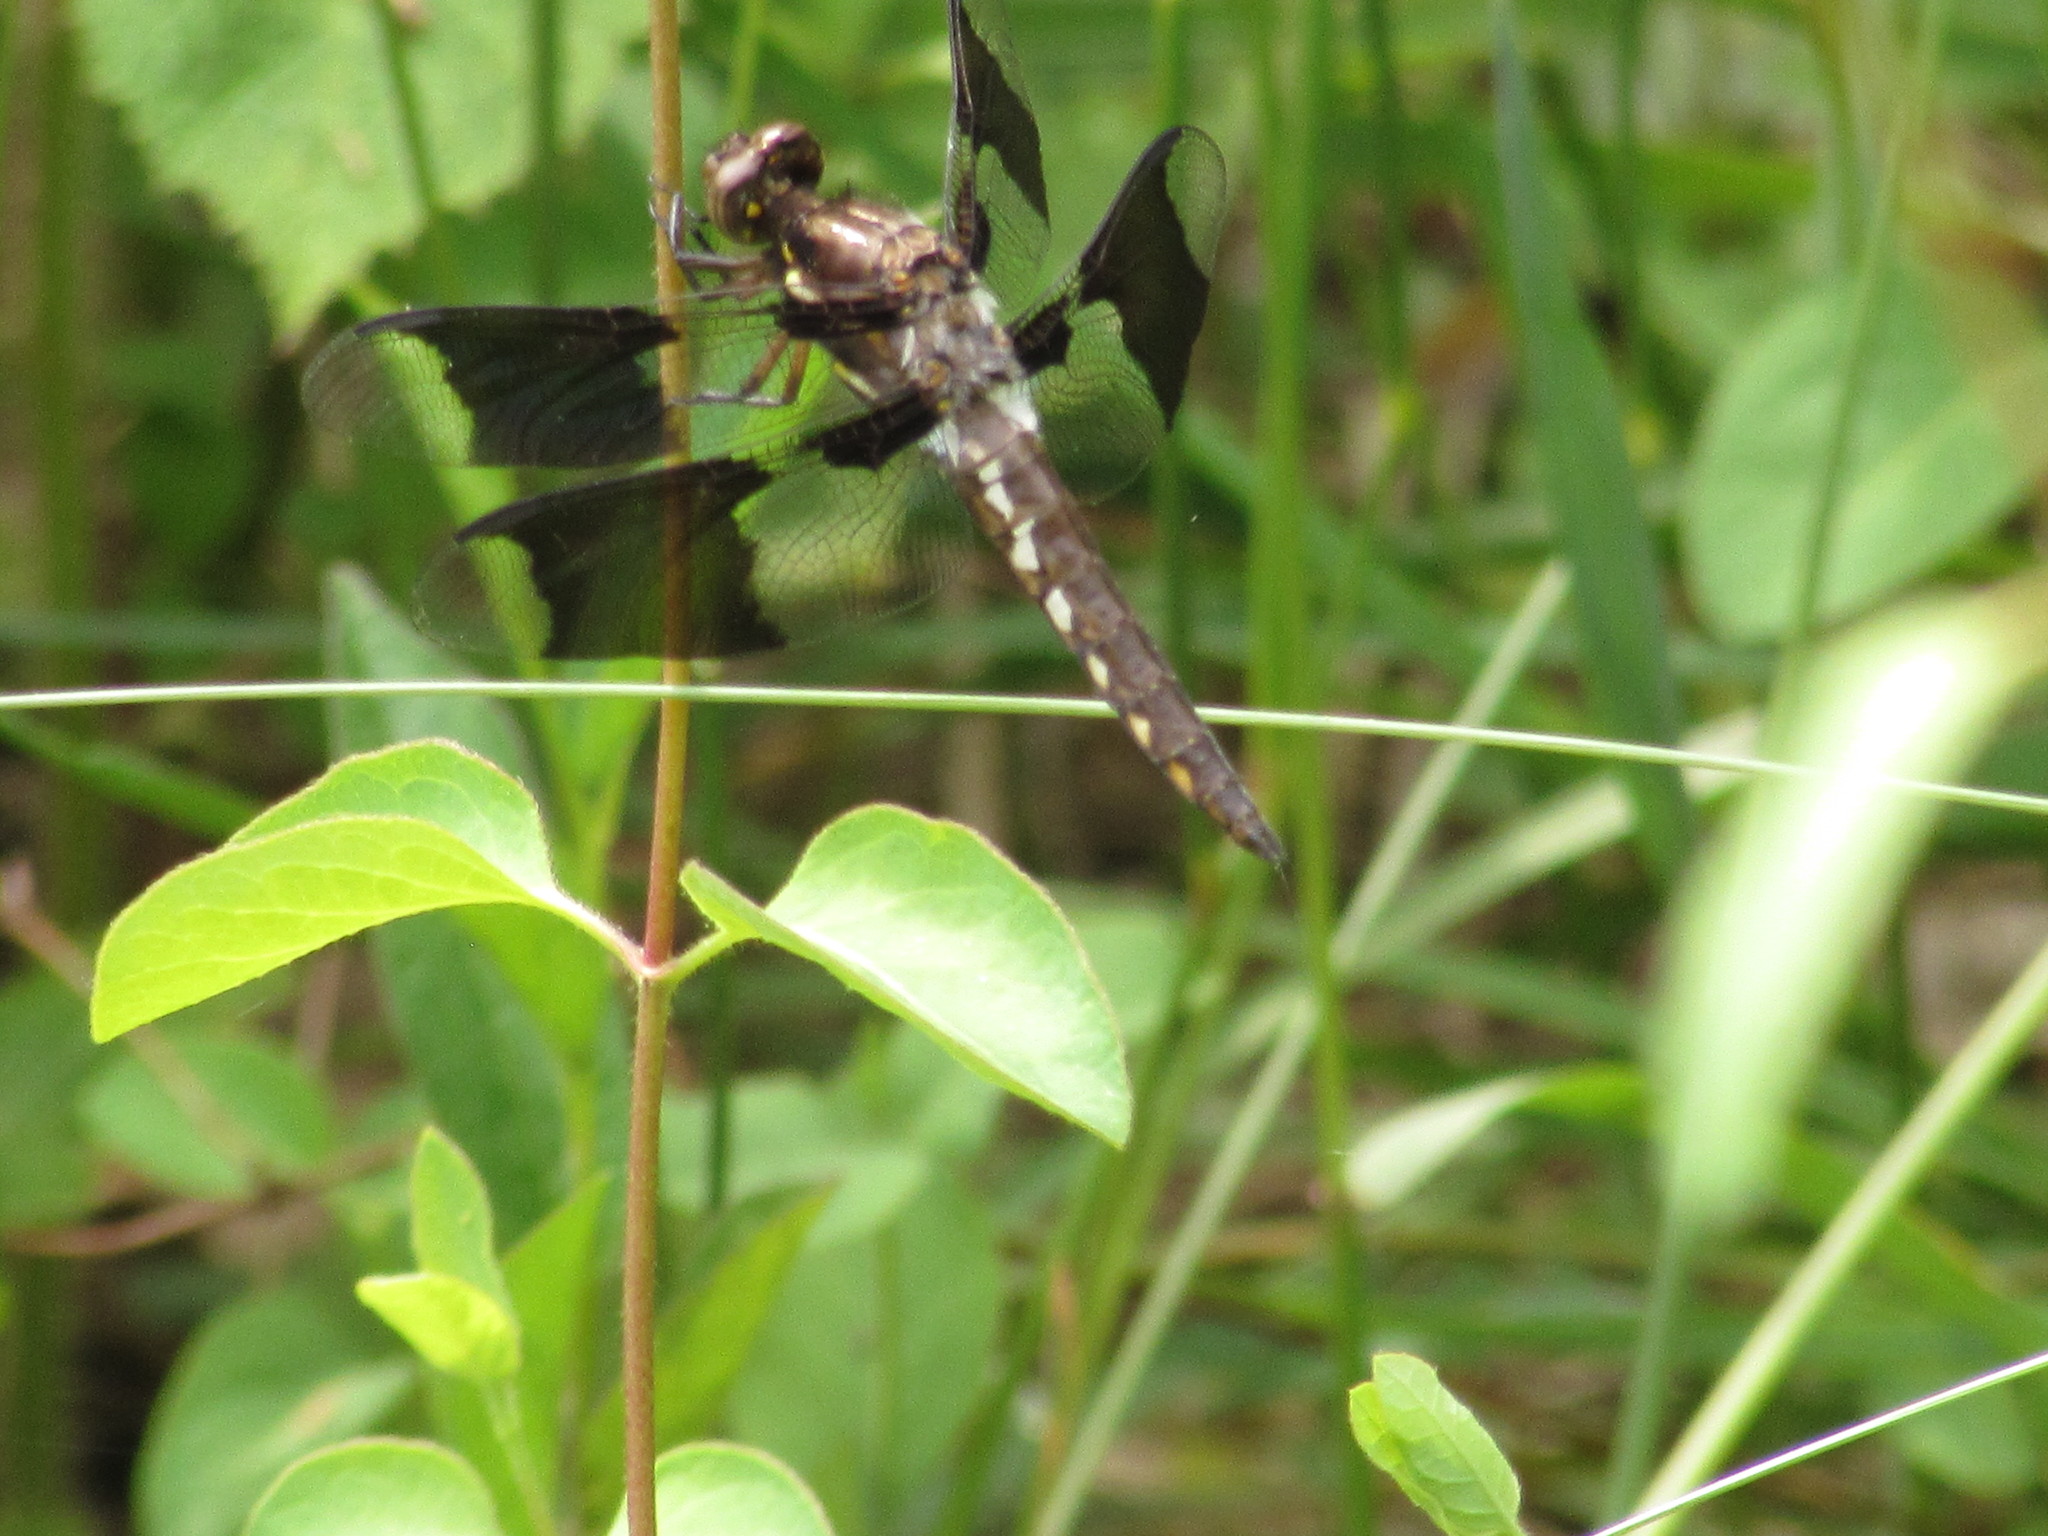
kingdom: Animalia
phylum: Arthropoda
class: Insecta
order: Odonata
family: Libellulidae
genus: Plathemis
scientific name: Plathemis lydia
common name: Common whitetail
